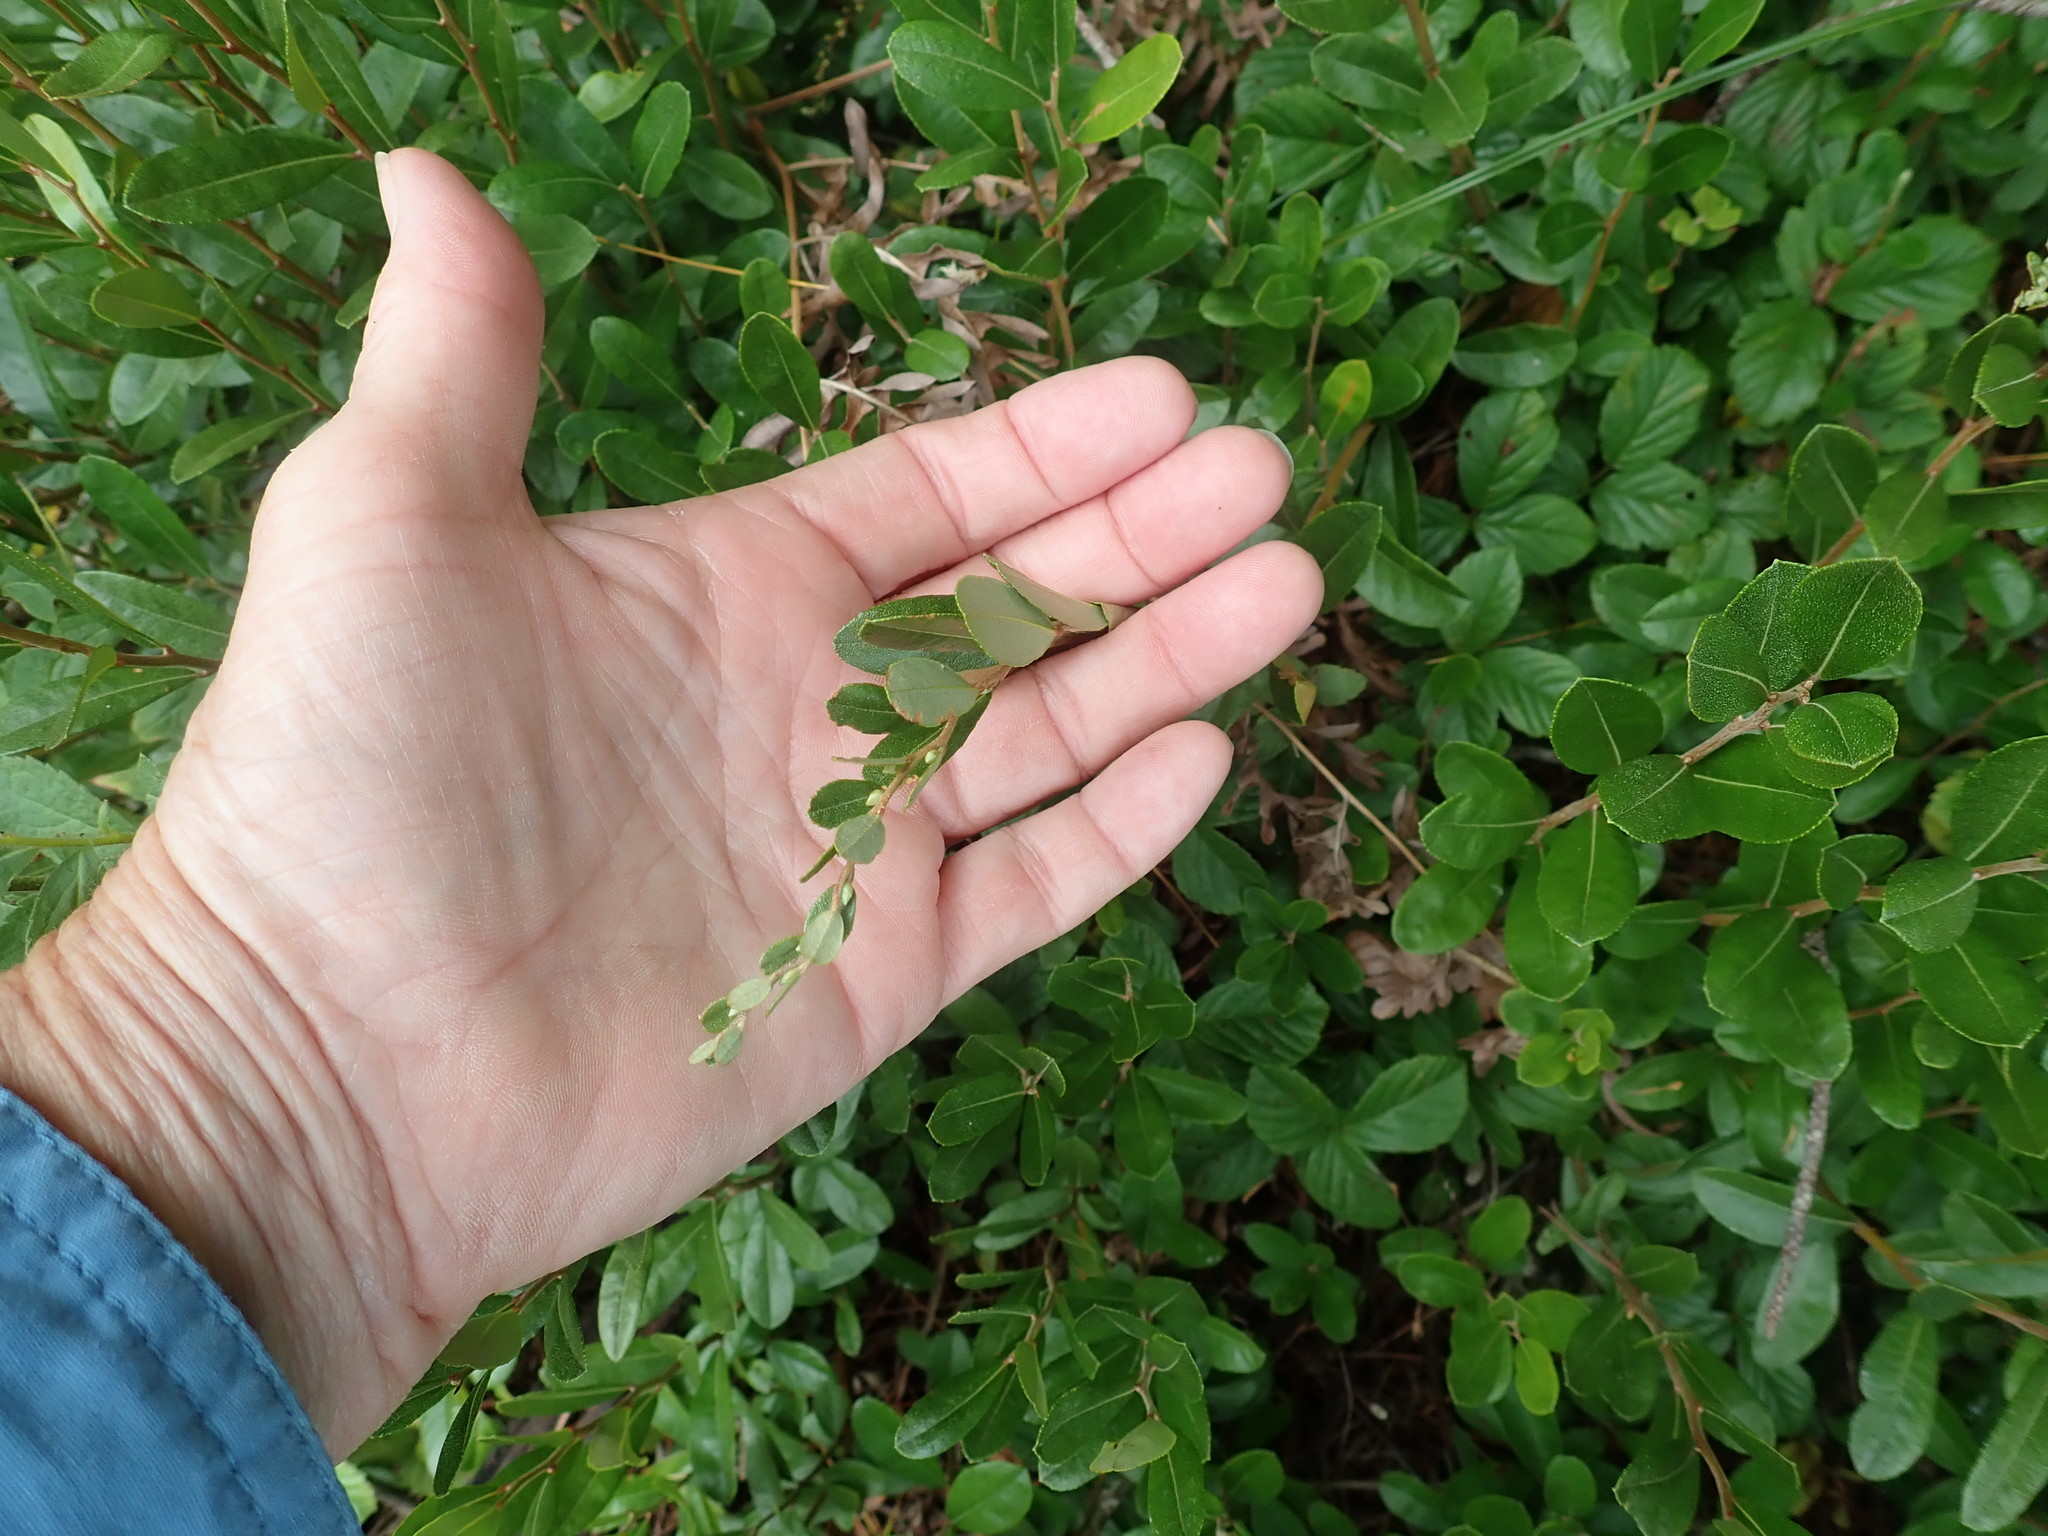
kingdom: Plantae
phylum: Tracheophyta
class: Magnoliopsida
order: Ericales
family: Ericaceae
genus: Chamaedaphne
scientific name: Chamaedaphne calyculata
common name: Leatherleaf
